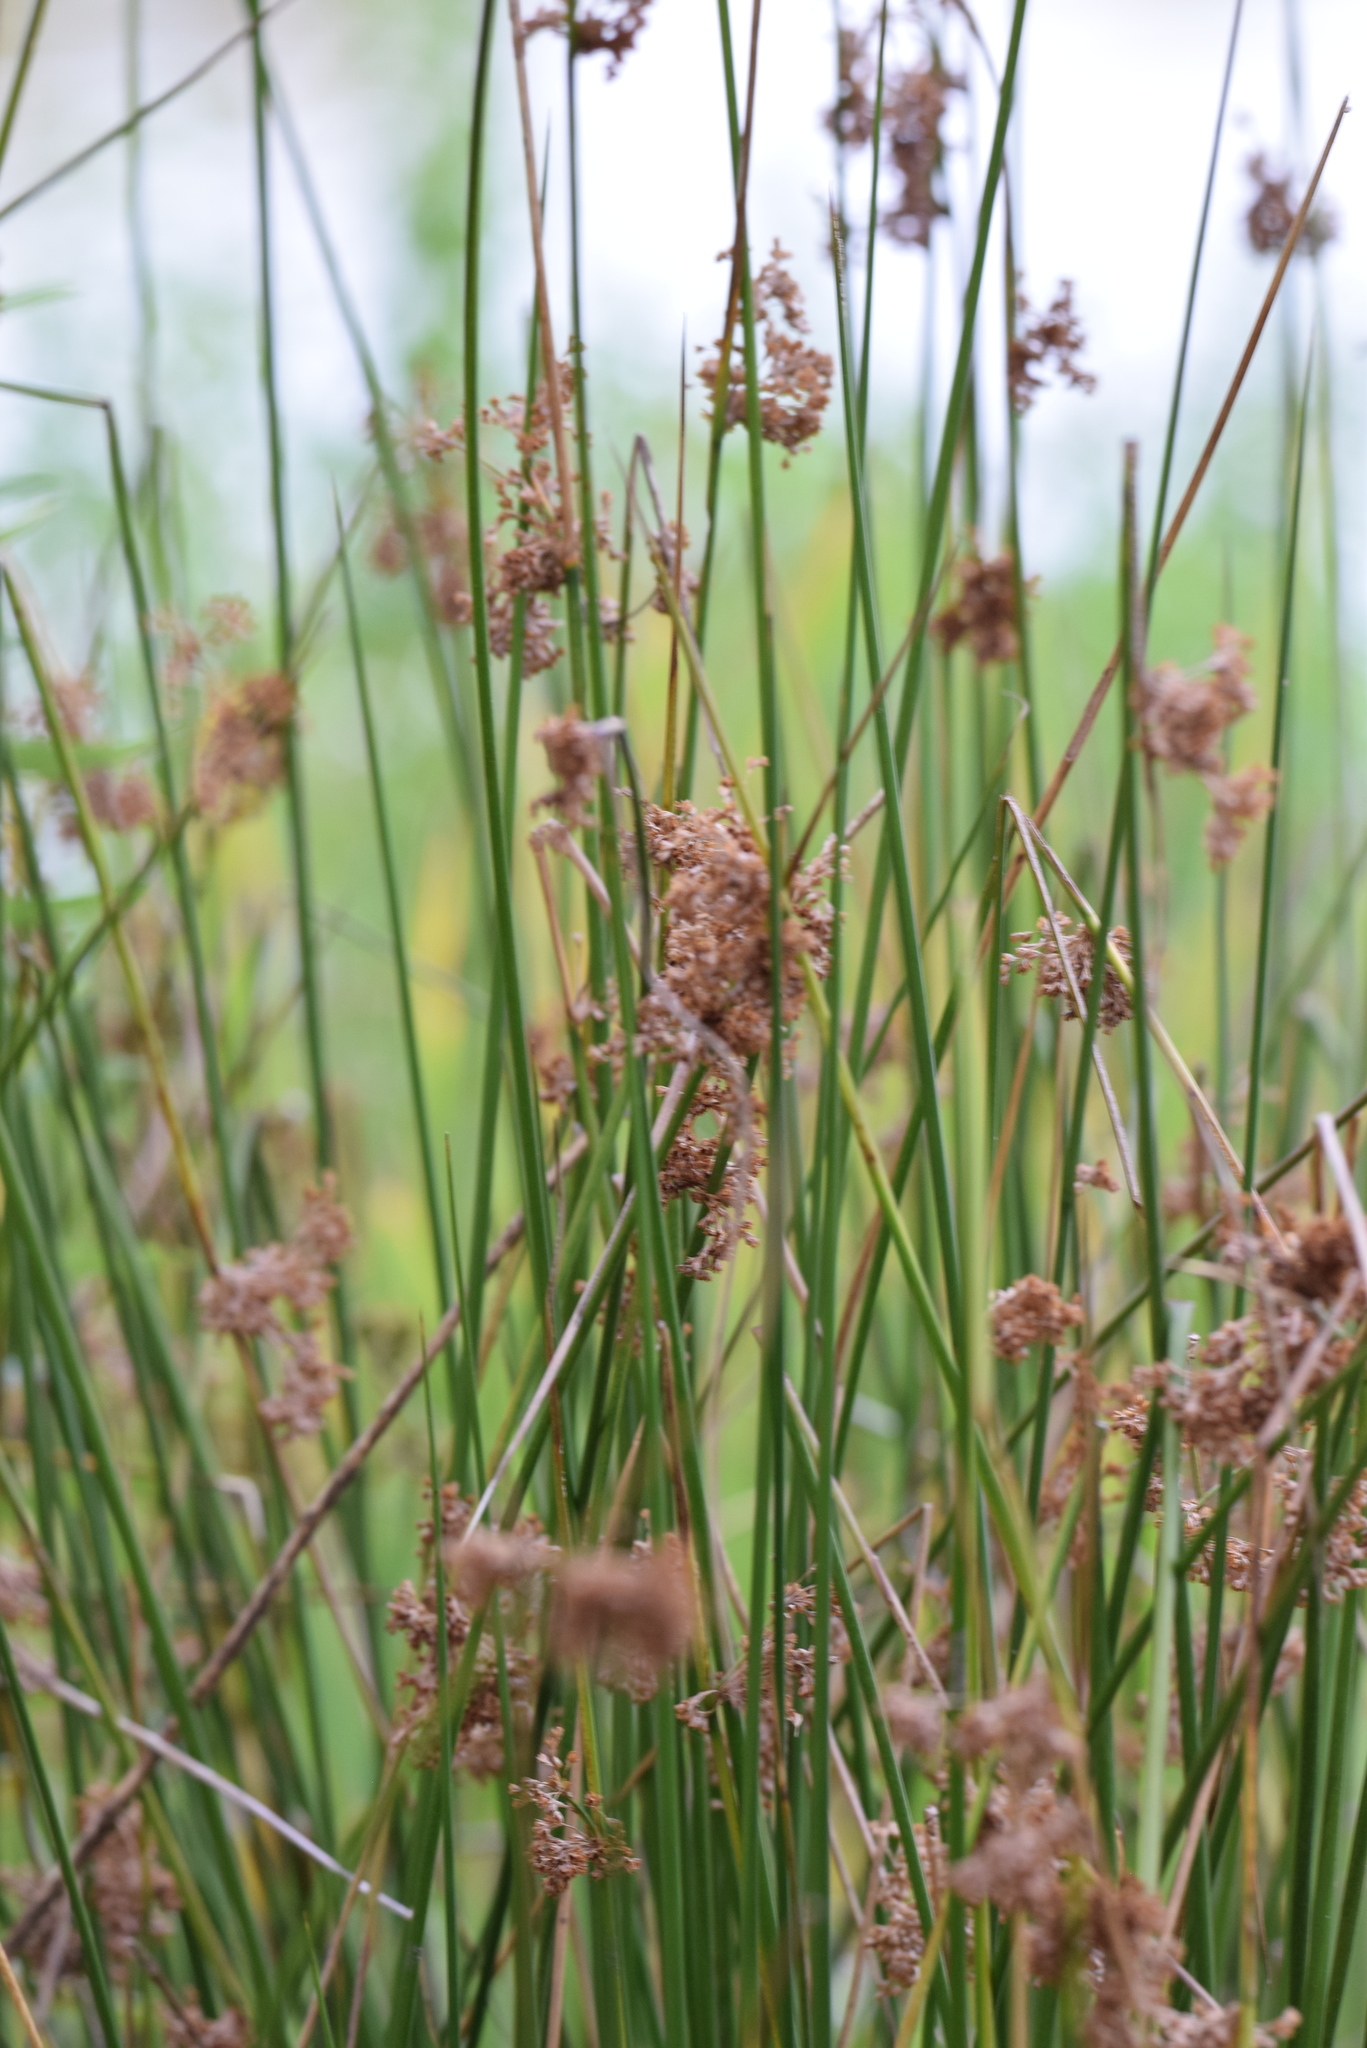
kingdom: Plantae
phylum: Tracheophyta
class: Liliopsida
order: Poales
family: Juncaceae
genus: Juncus
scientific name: Juncus effusus
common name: Soft rush
